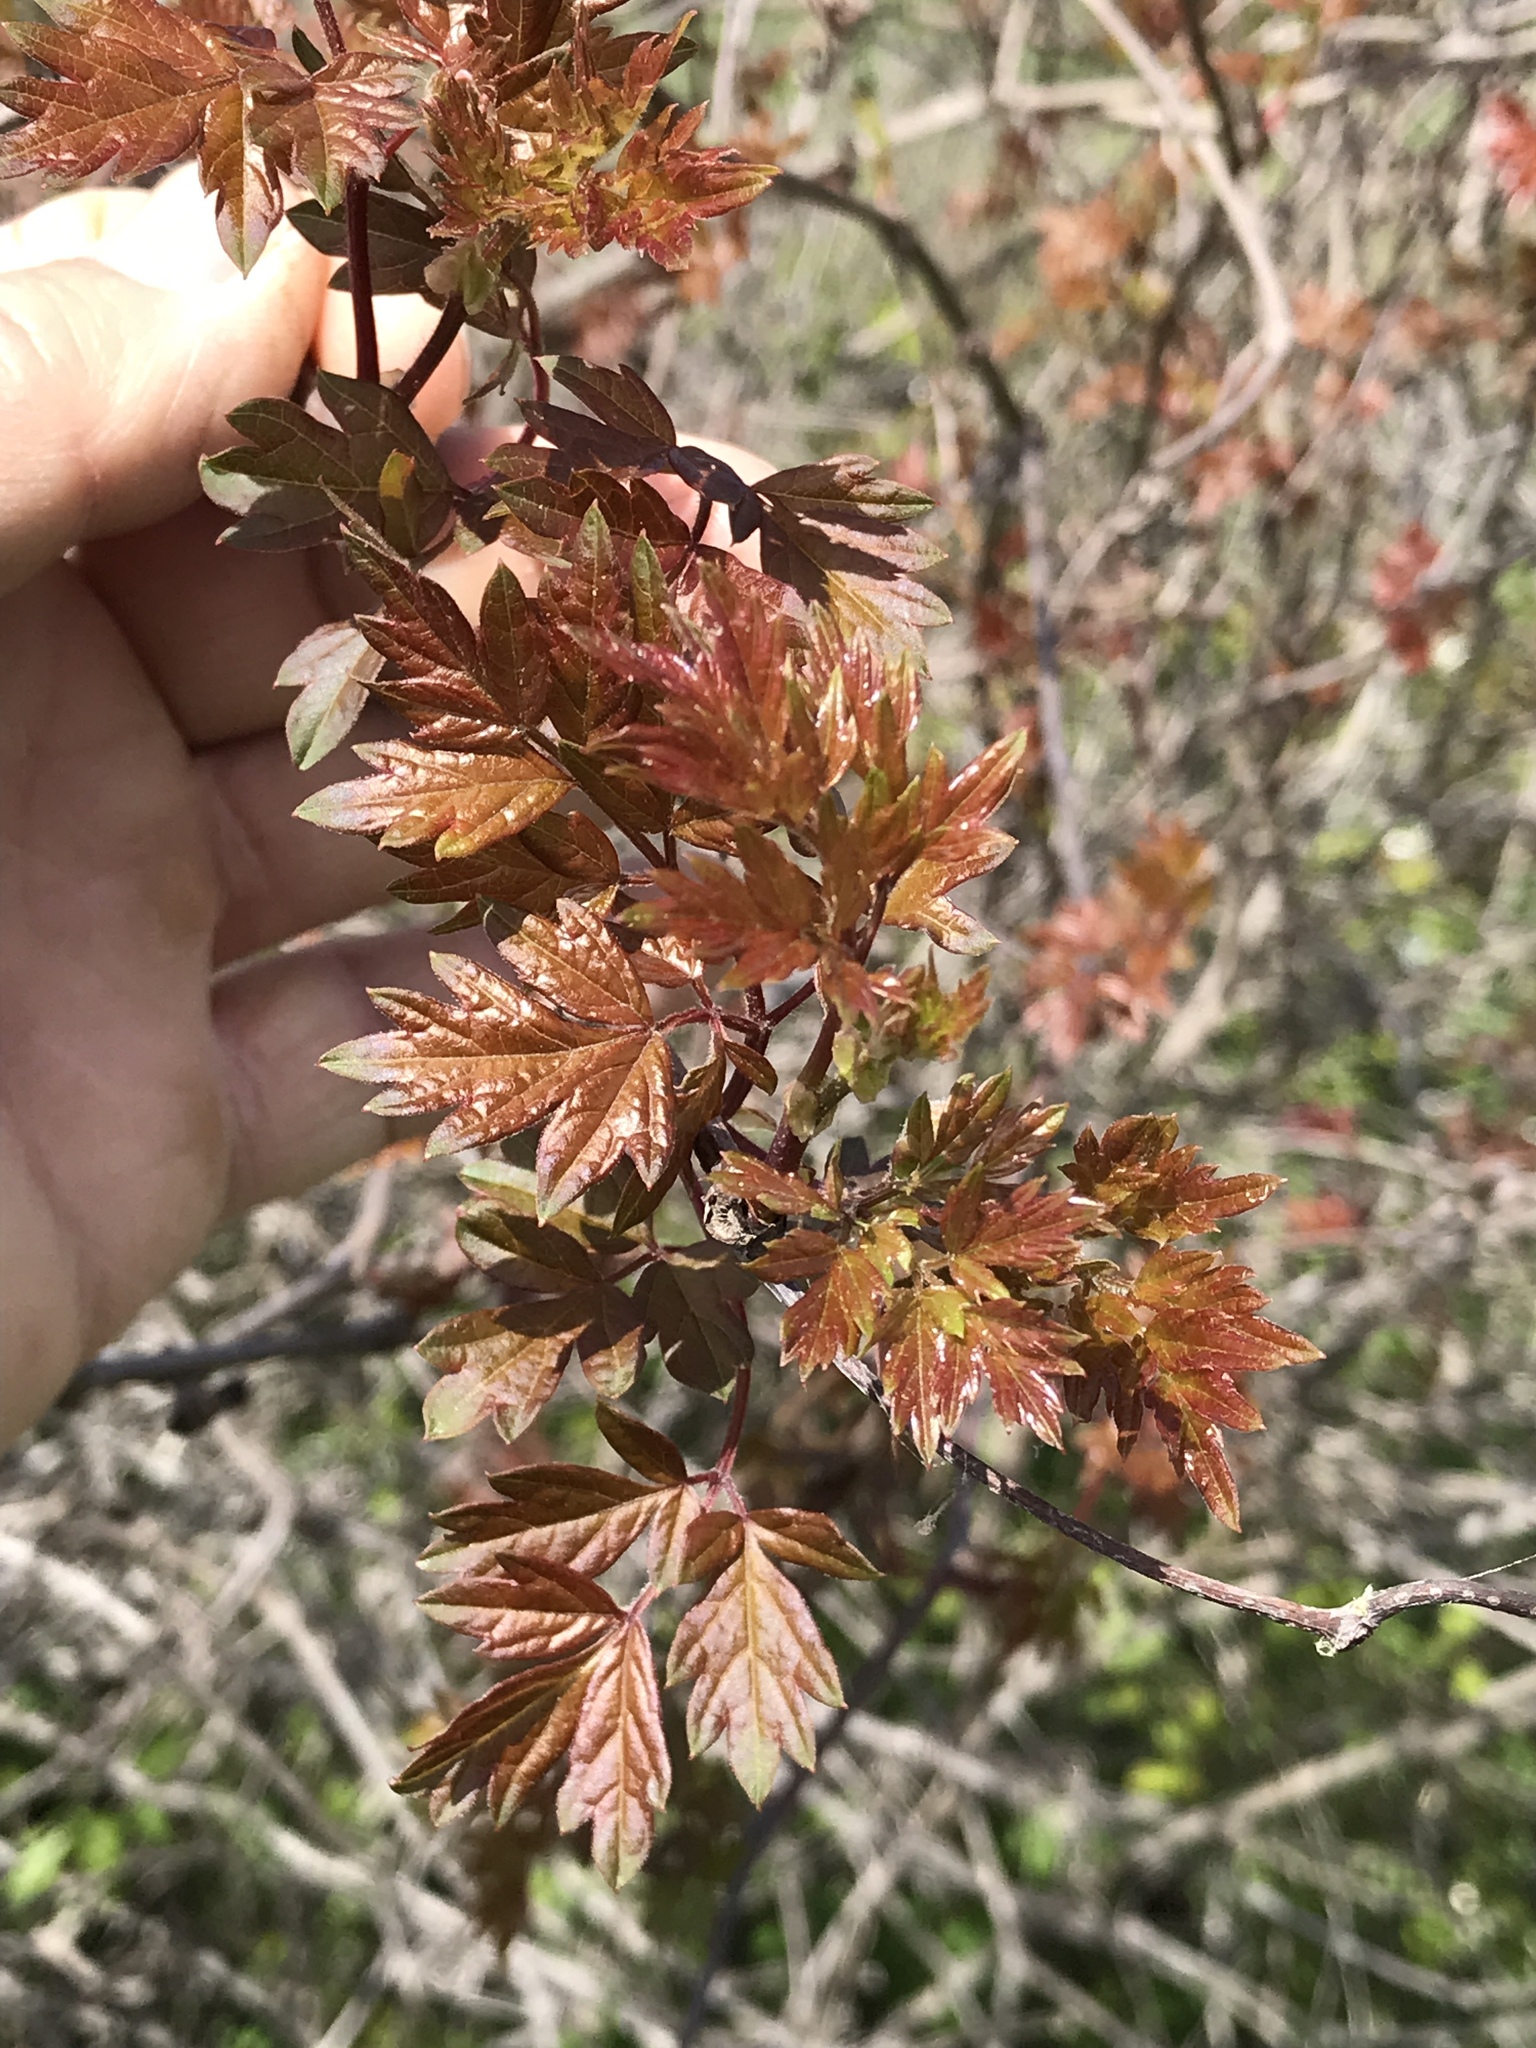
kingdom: Plantae
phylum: Tracheophyta
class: Magnoliopsida
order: Vitales
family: Vitaceae
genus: Nekemias
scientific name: Nekemias arborea
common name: Peppervine
